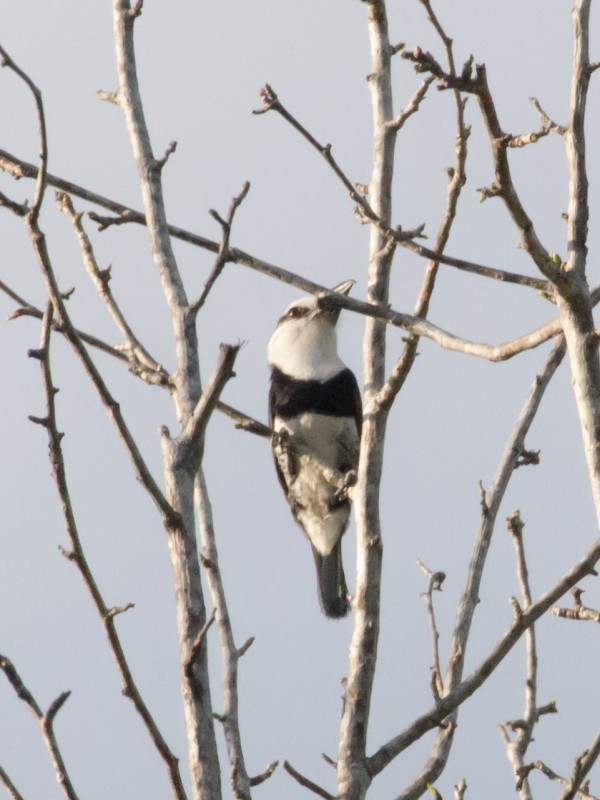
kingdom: Animalia
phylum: Chordata
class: Aves
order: Piciformes
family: Bucconidae
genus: Notharchus
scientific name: Notharchus hyperrhynchus
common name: White-necked puffbird
